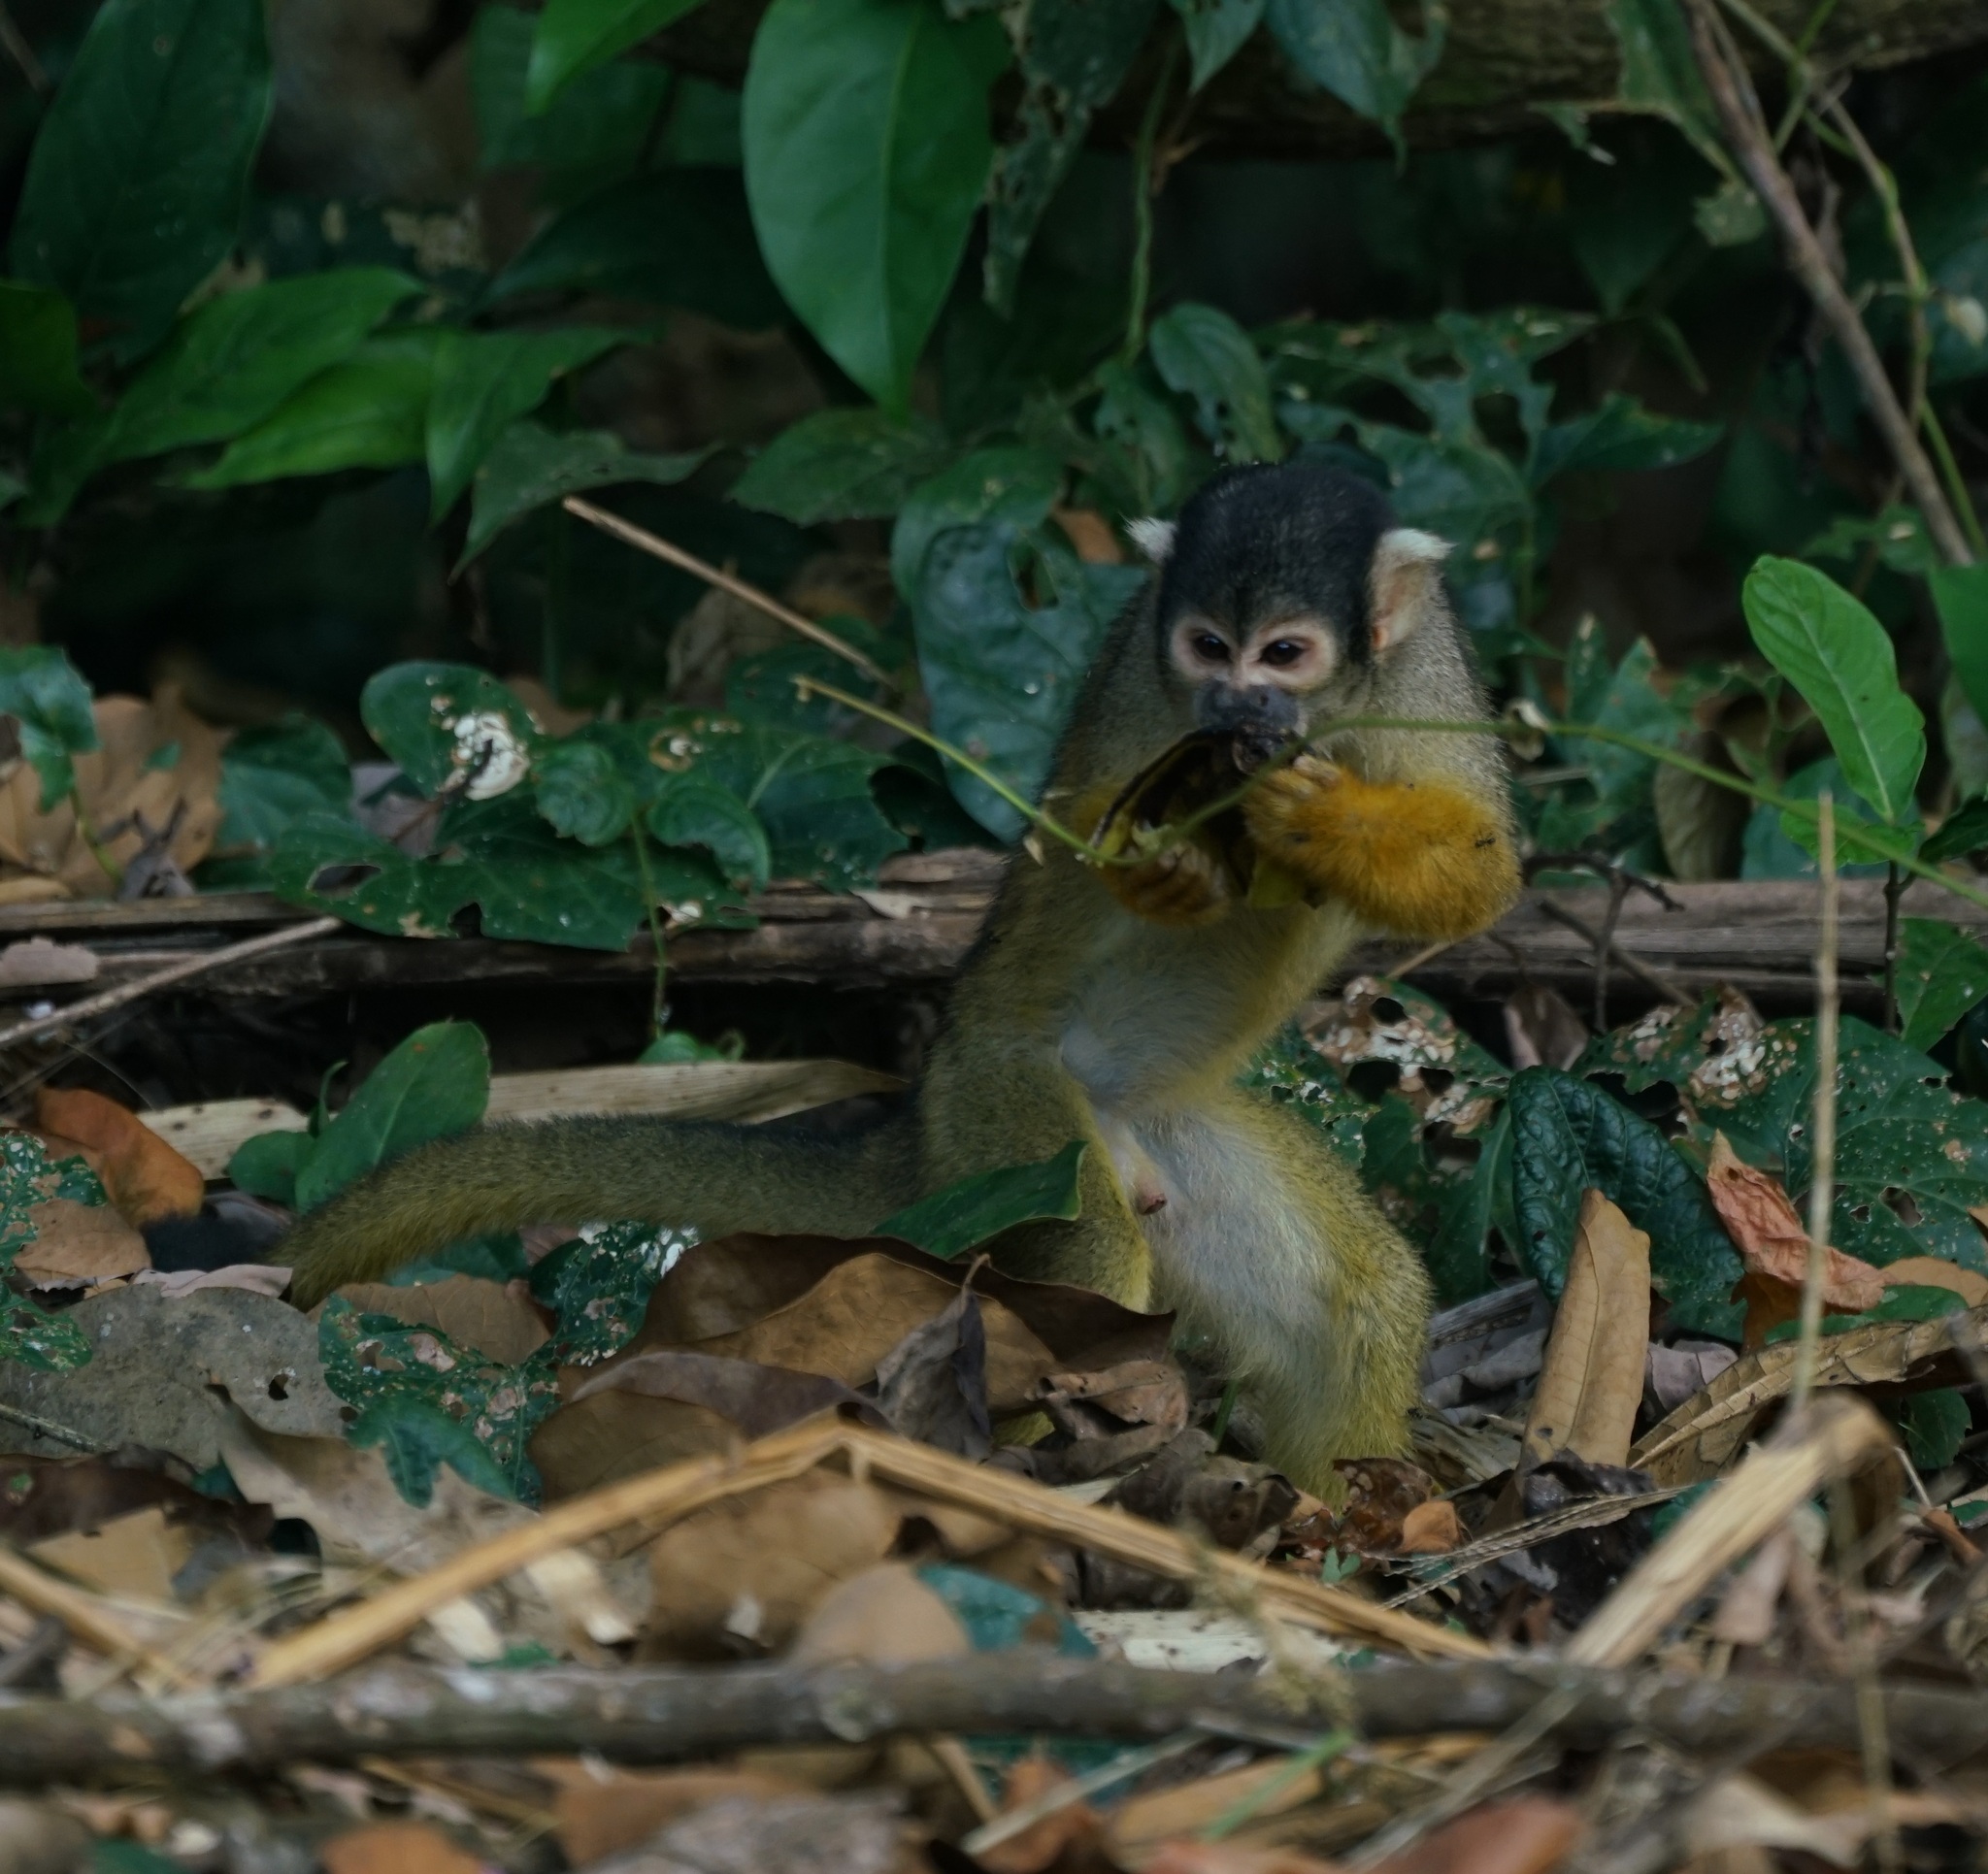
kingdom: Animalia
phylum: Chordata
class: Mammalia
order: Primates
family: Cebidae
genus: Saimiri
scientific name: Saimiri boliviensis
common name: Black-capped squirrel monkey
